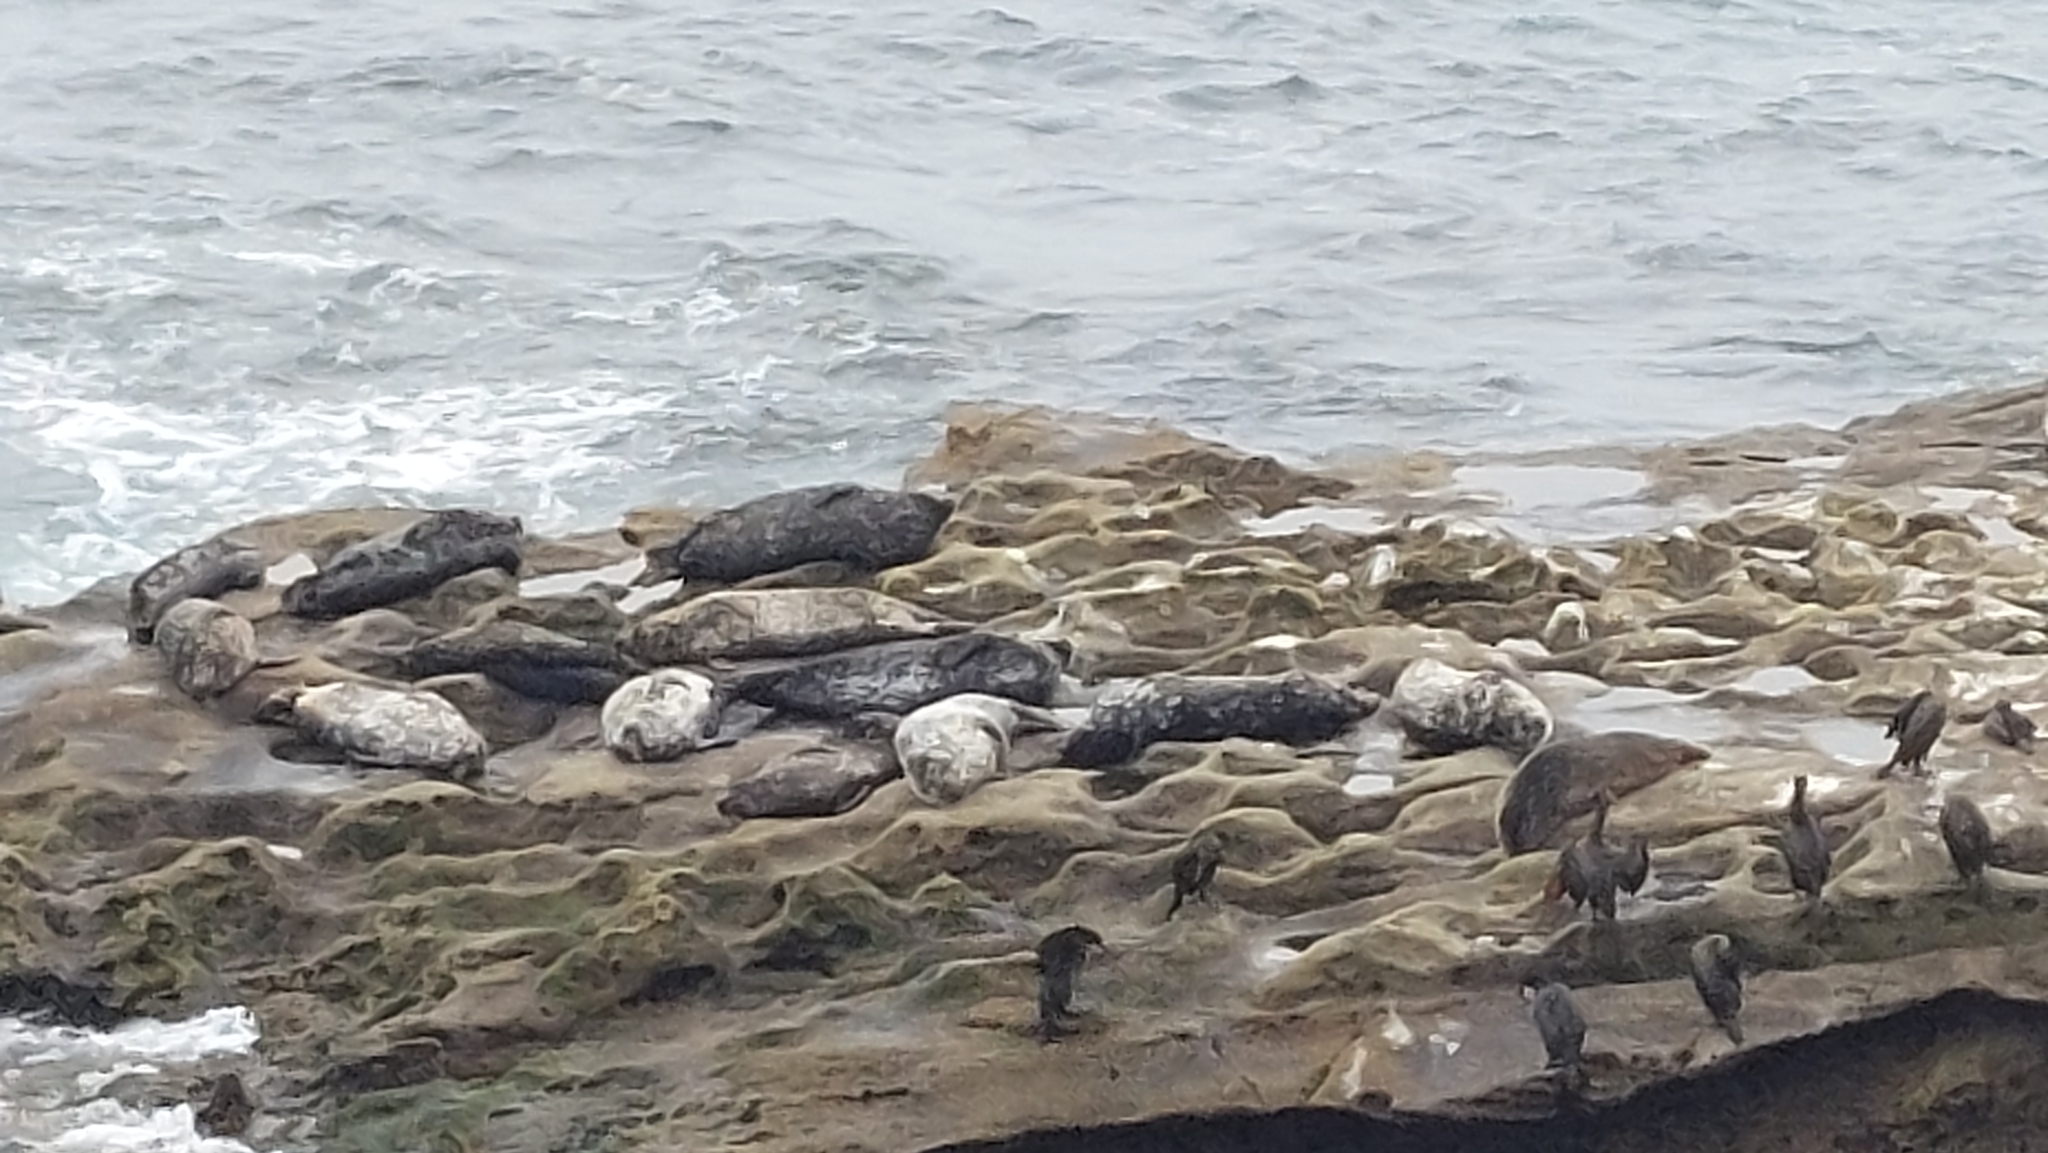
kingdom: Animalia
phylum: Chordata
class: Mammalia
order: Carnivora
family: Phocidae
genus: Phoca
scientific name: Phoca vitulina
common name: Harbor seal
